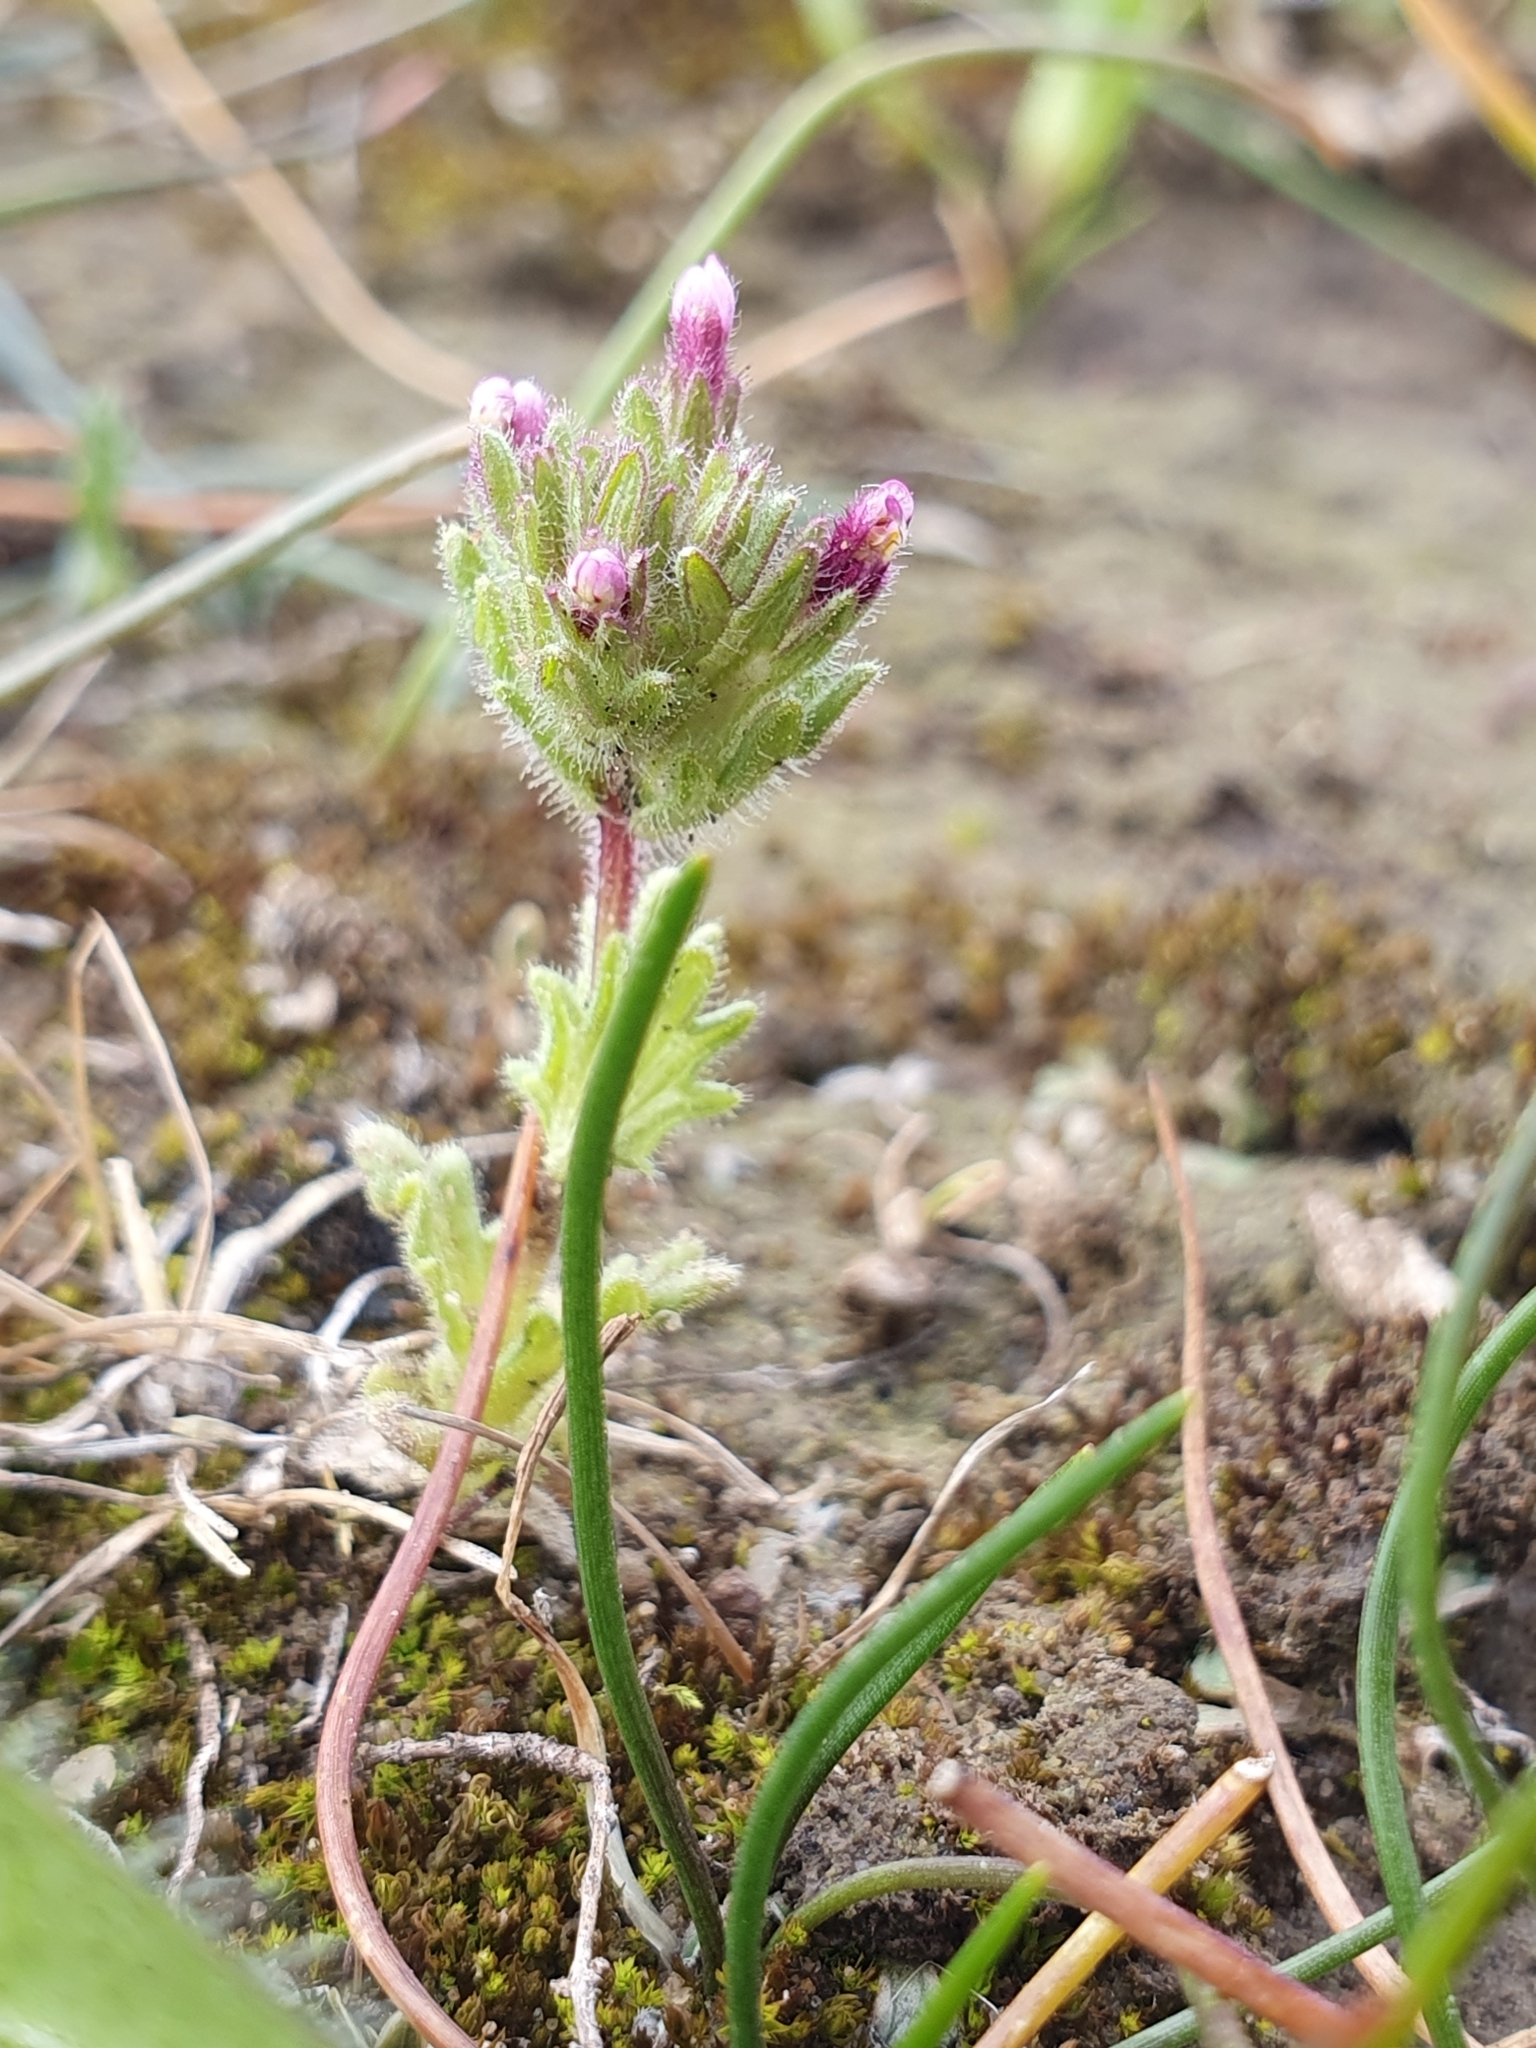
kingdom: Plantae
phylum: Tracheophyta
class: Magnoliopsida
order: Lamiales
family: Orobanchaceae
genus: Parentucellia
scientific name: Parentucellia latifolia
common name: Broadleaf glandweed
